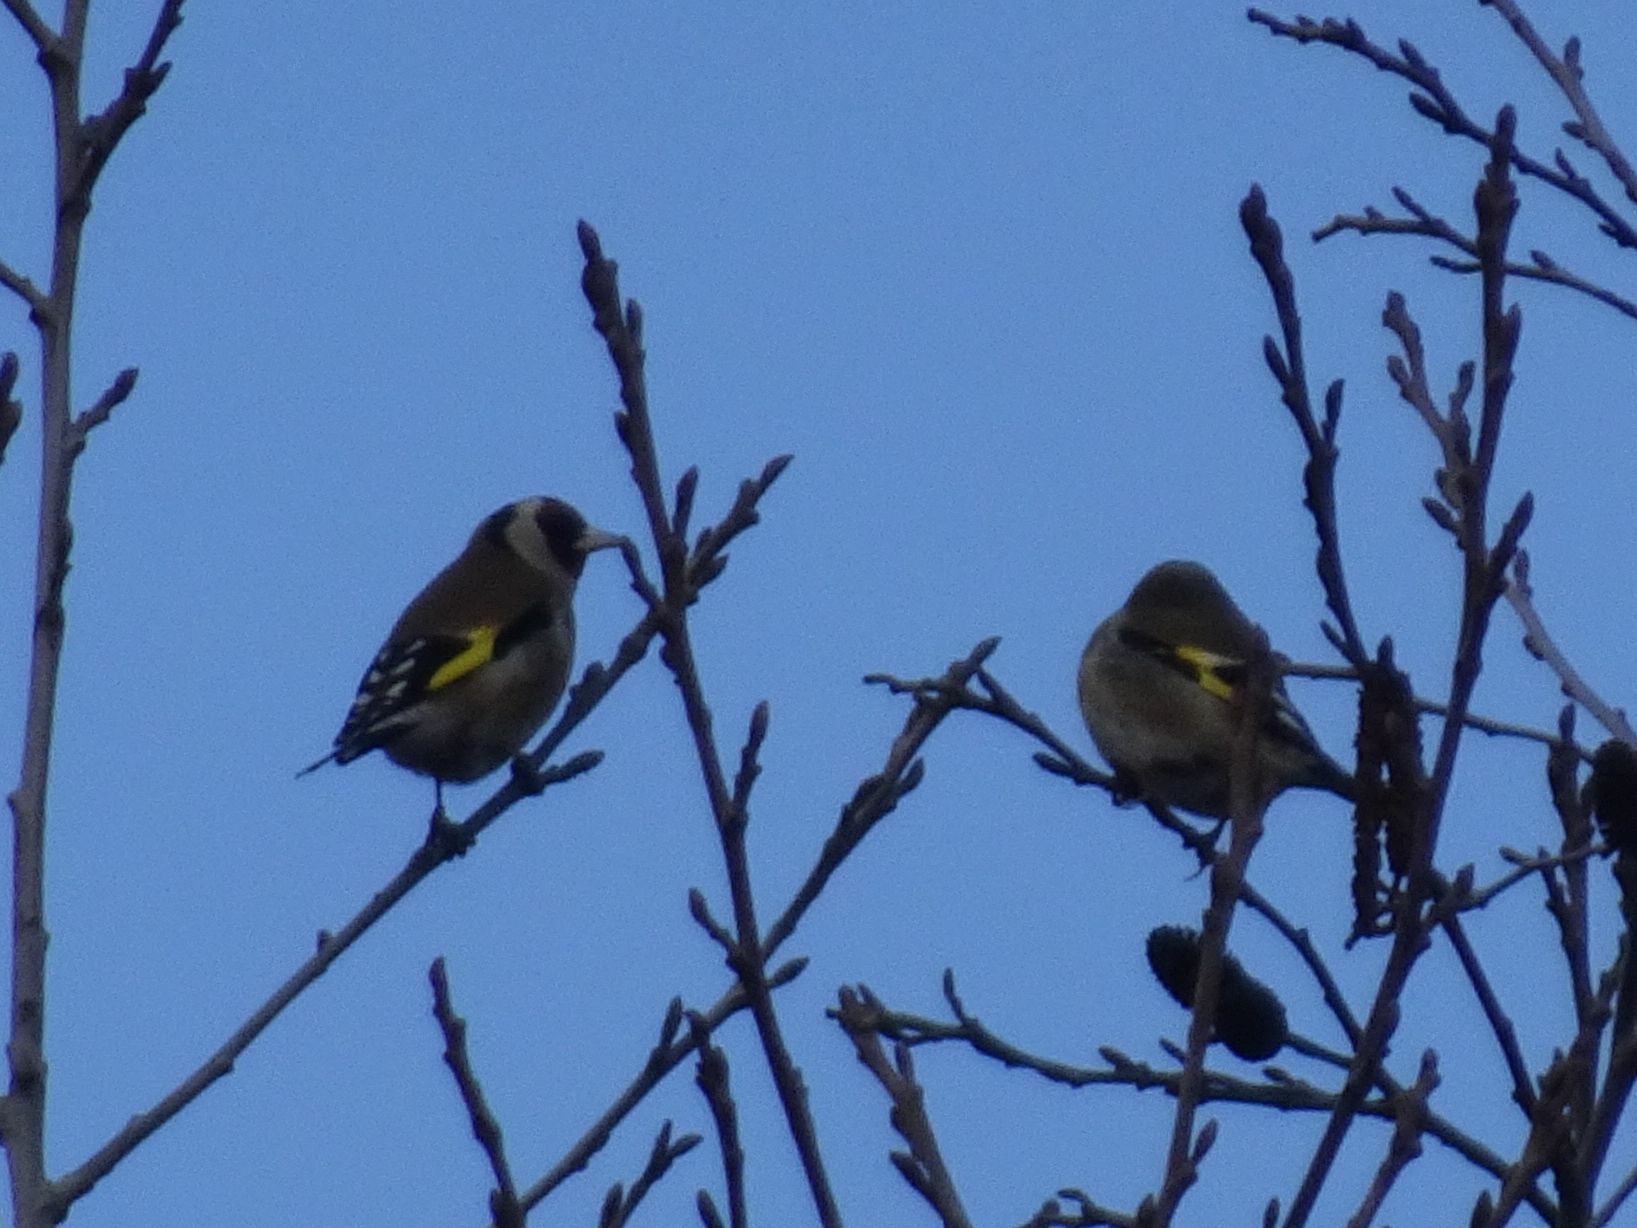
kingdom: Animalia
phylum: Chordata
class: Aves
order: Passeriformes
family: Fringillidae
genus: Carduelis
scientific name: Carduelis carduelis
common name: European goldfinch
